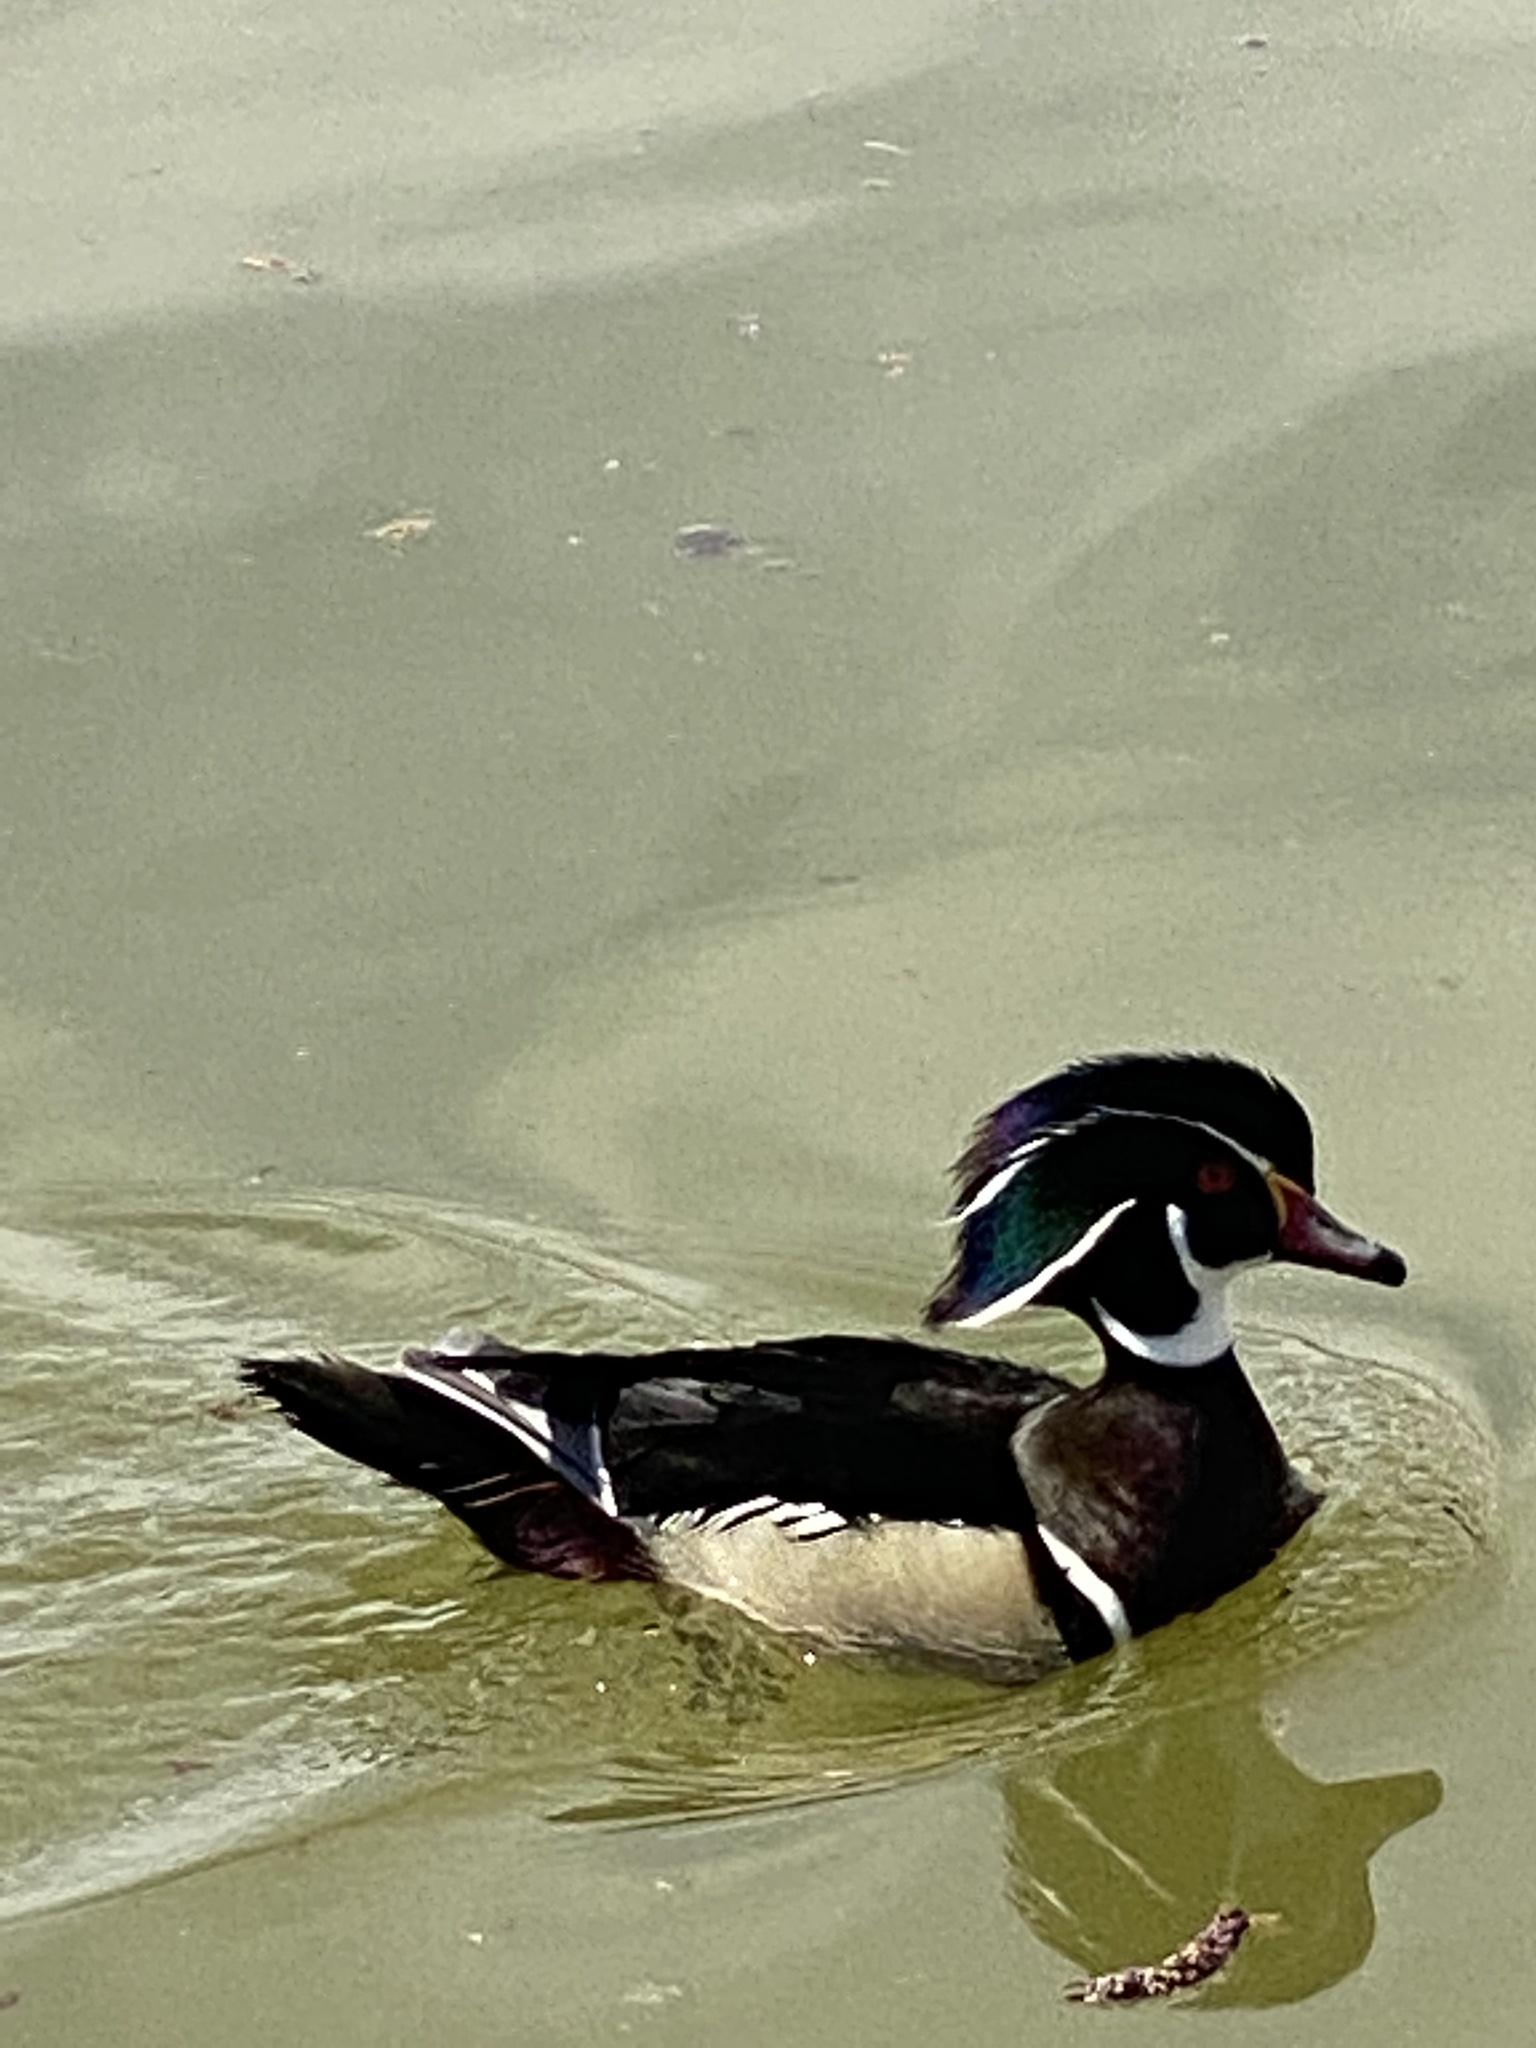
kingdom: Animalia
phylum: Chordata
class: Aves
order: Anseriformes
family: Anatidae
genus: Aix
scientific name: Aix sponsa
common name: Wood duck
